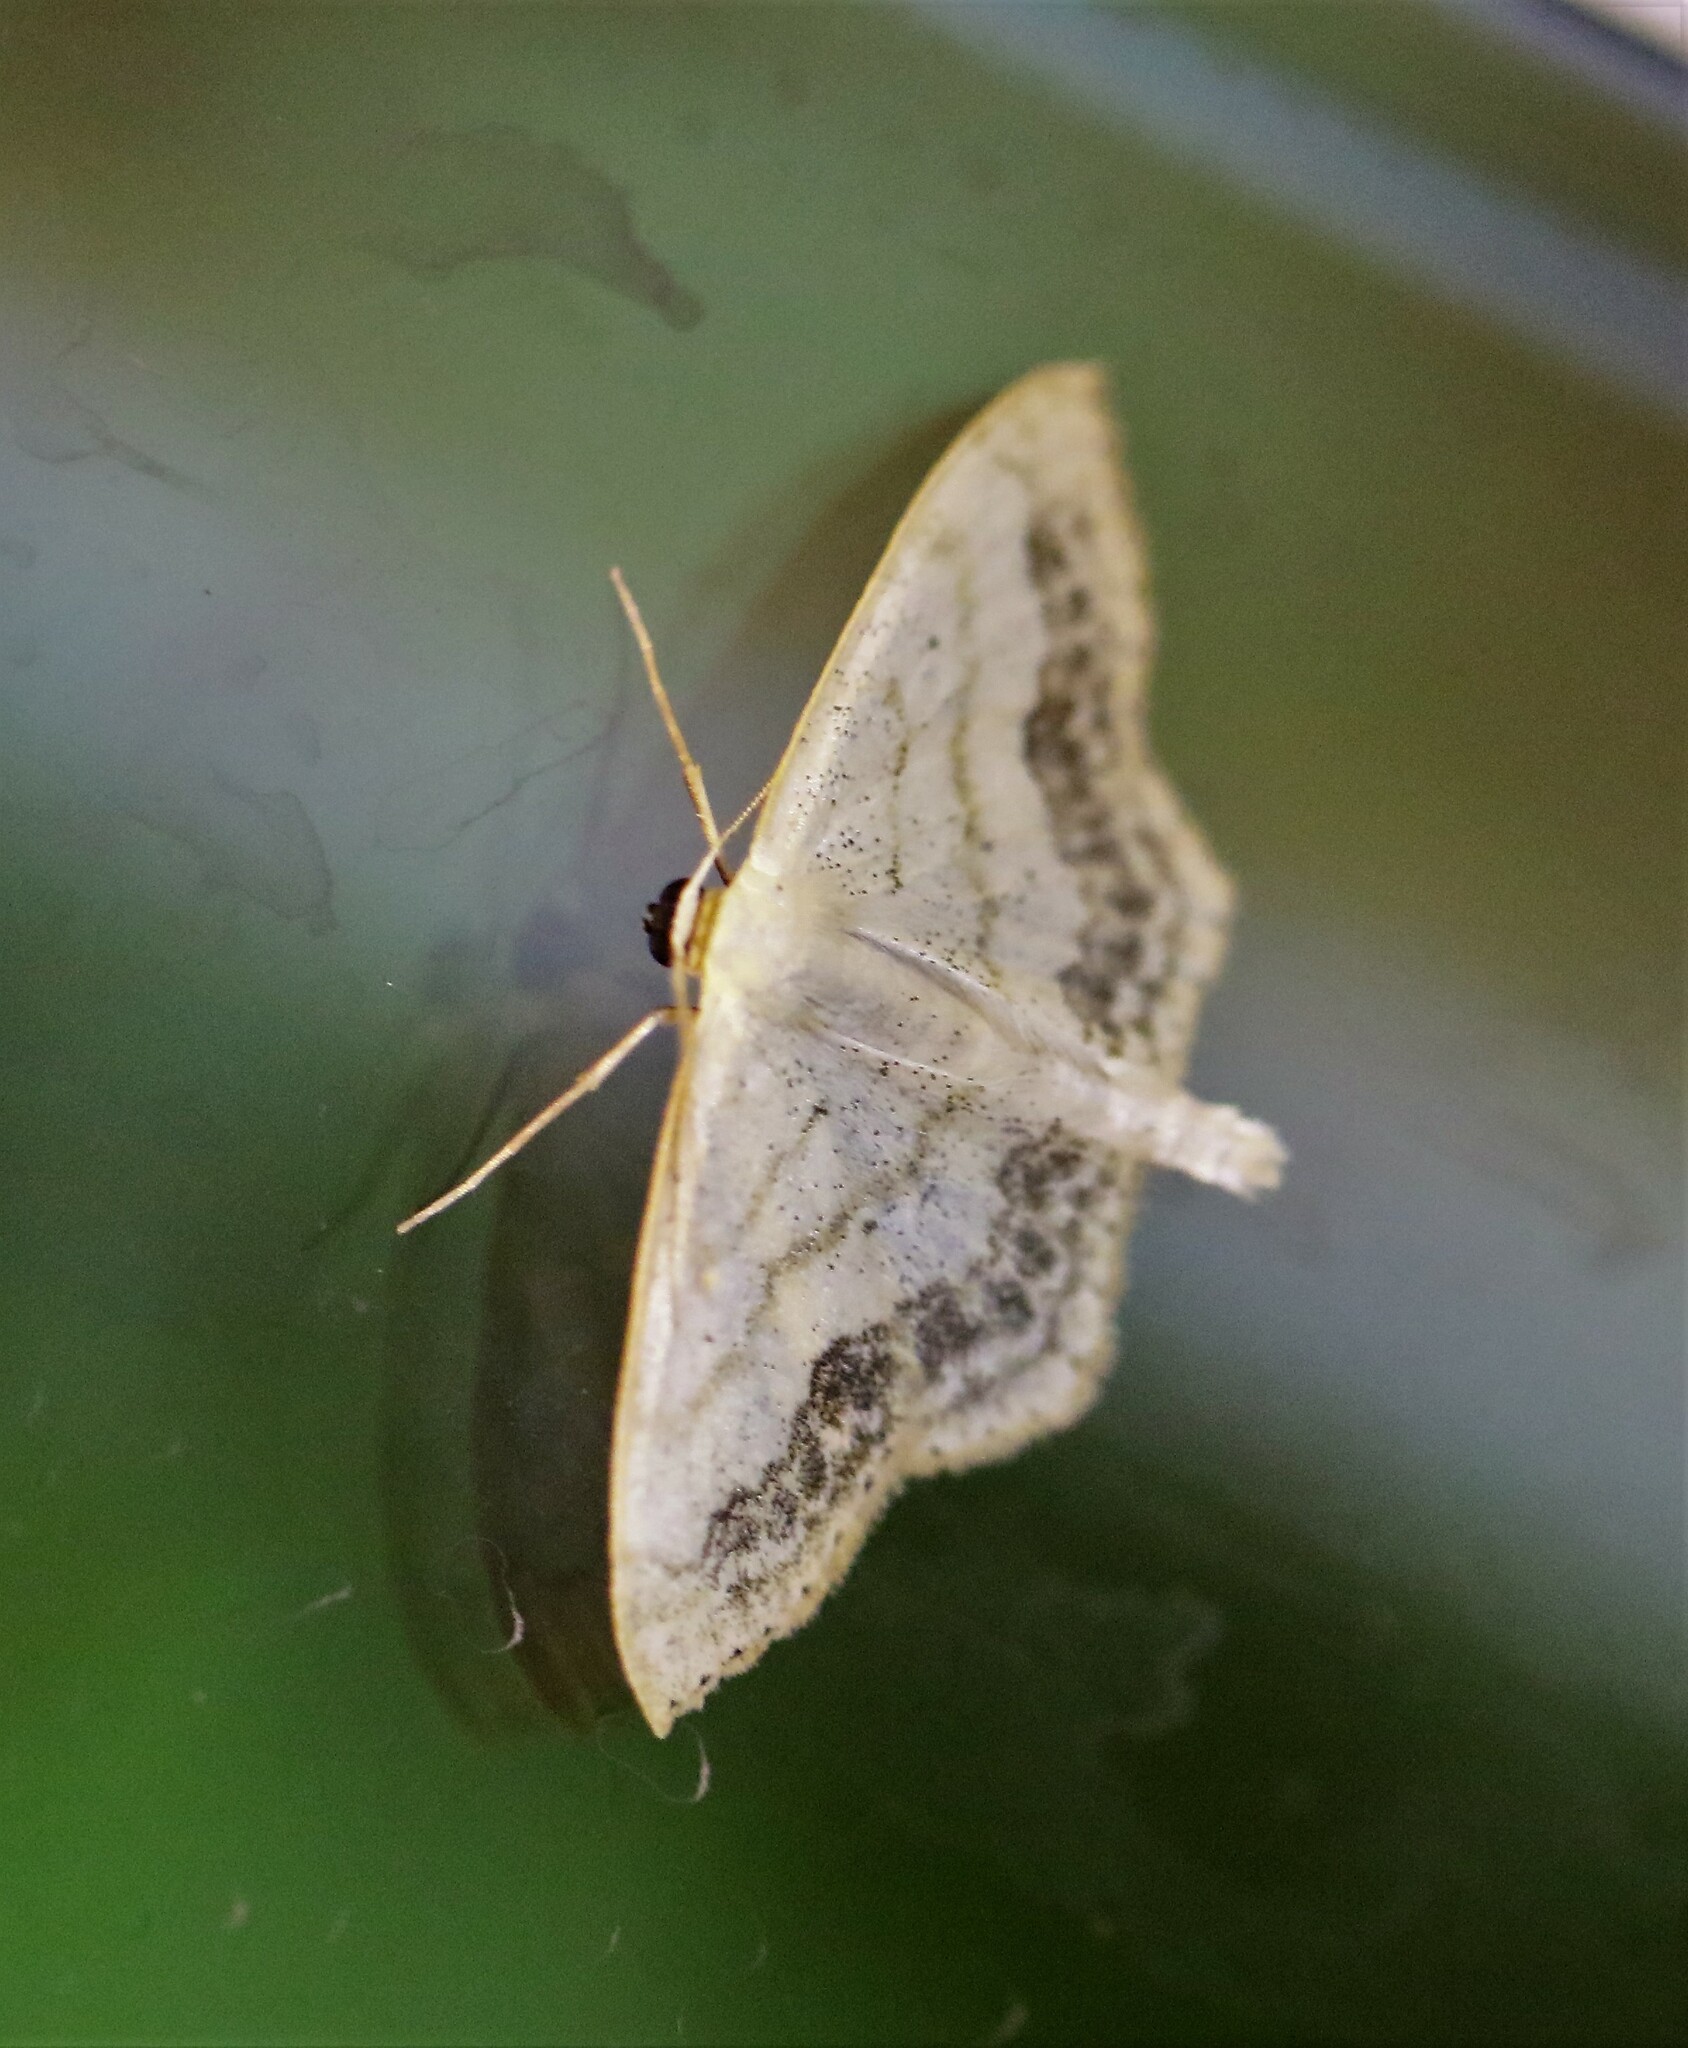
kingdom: Animalia
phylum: Arthropoda
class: Insecta
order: Lepidoptera
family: Geometridae
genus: Scopula
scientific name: Scopula limboundata
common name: Large lace border
